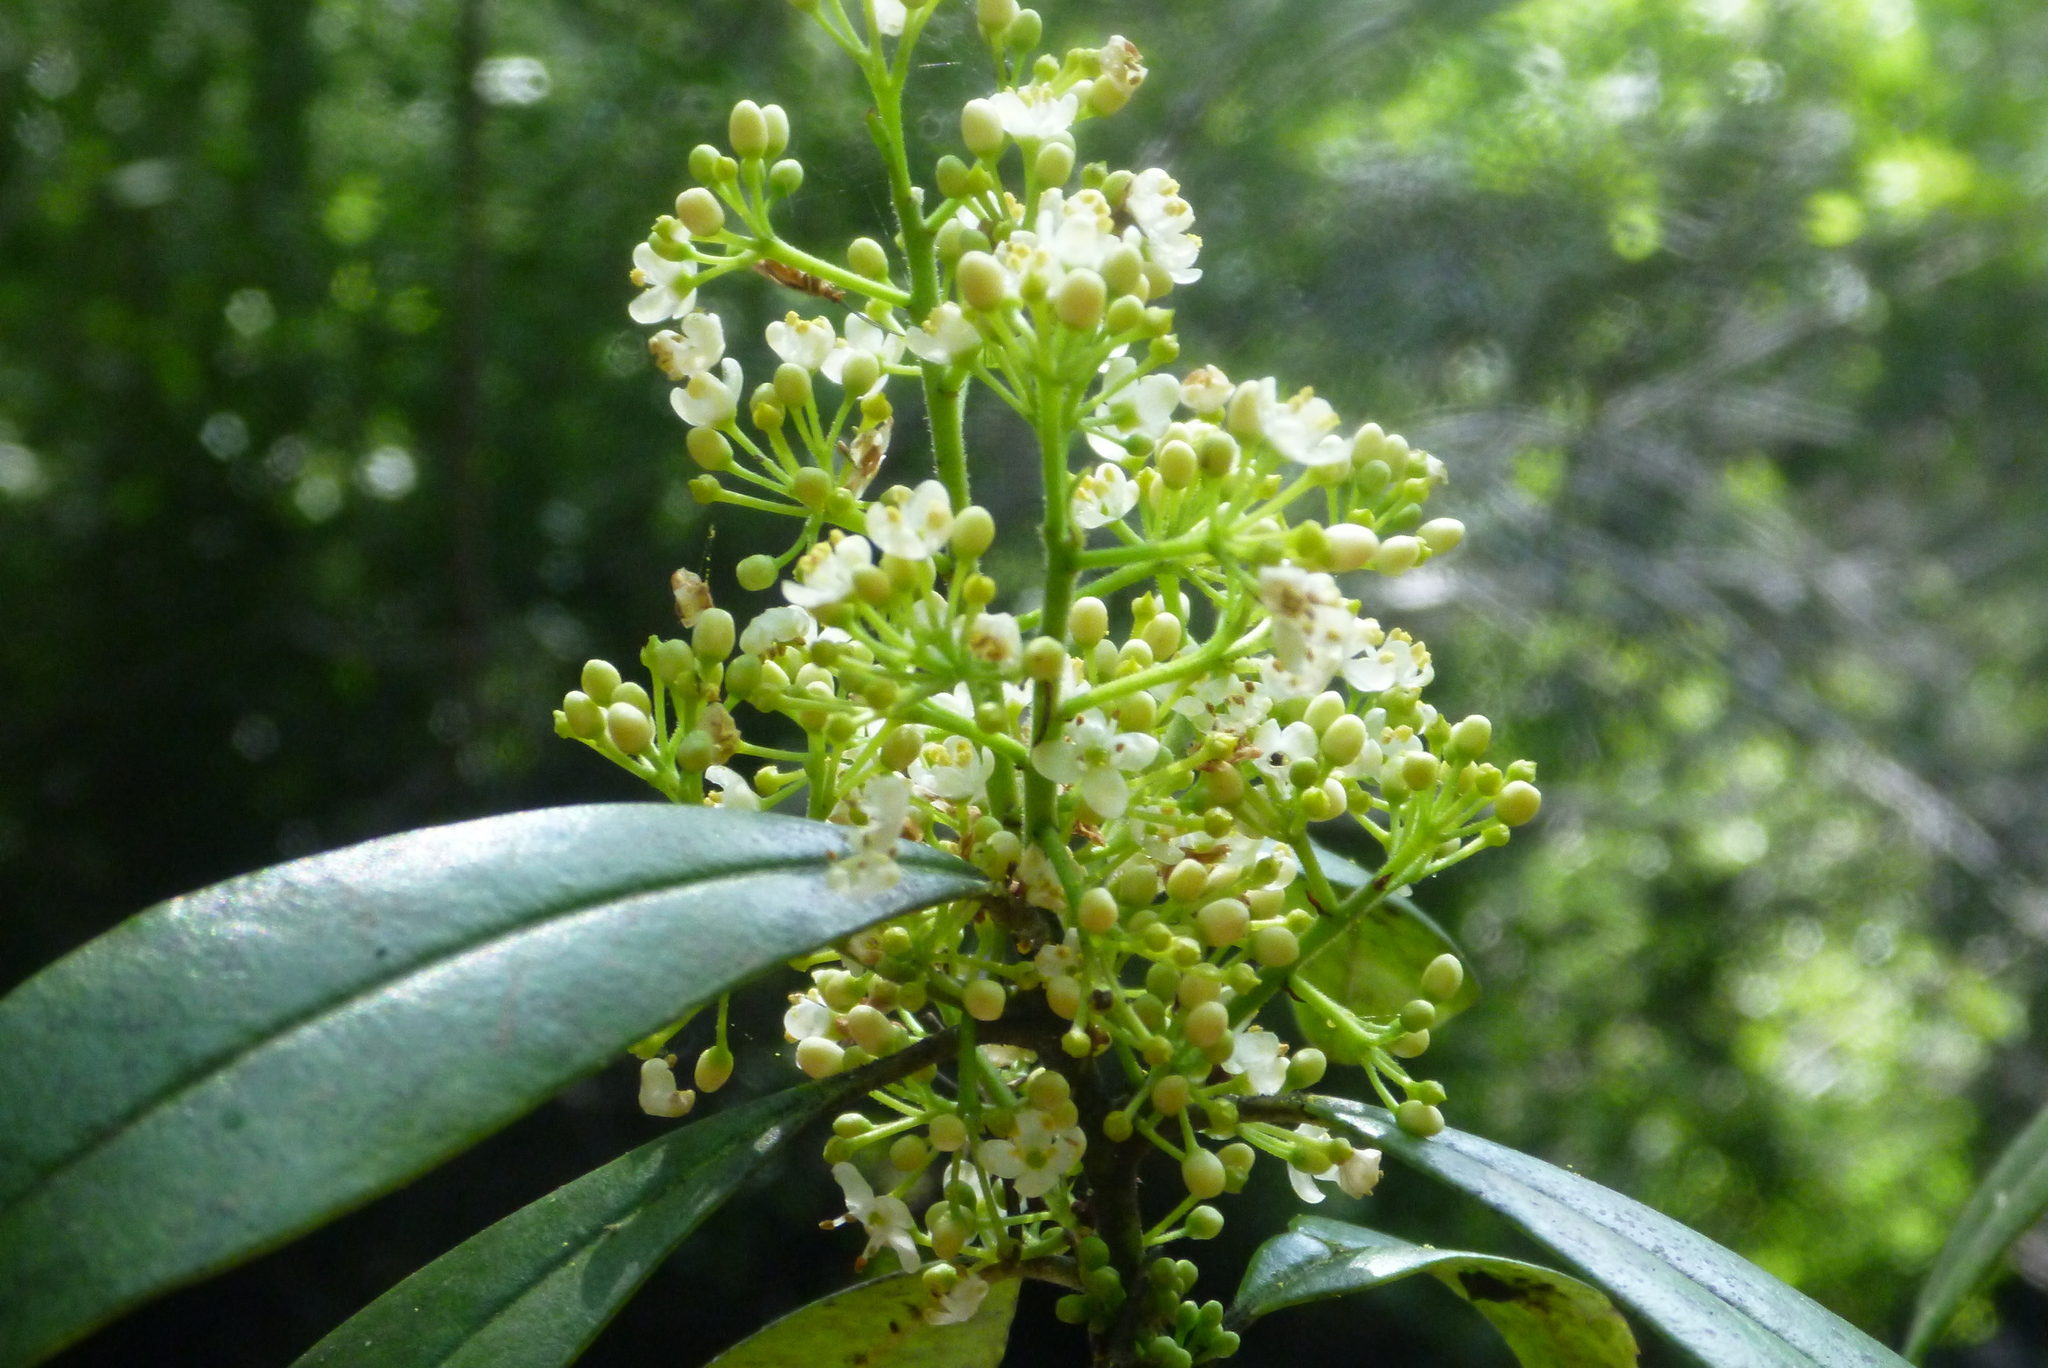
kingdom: Plantae
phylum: Tracheophyta
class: Magnoliopsida
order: Aquifoliales
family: Aquifoliaceae
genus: Ilex
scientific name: Ilex cassine
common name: Dahoon
